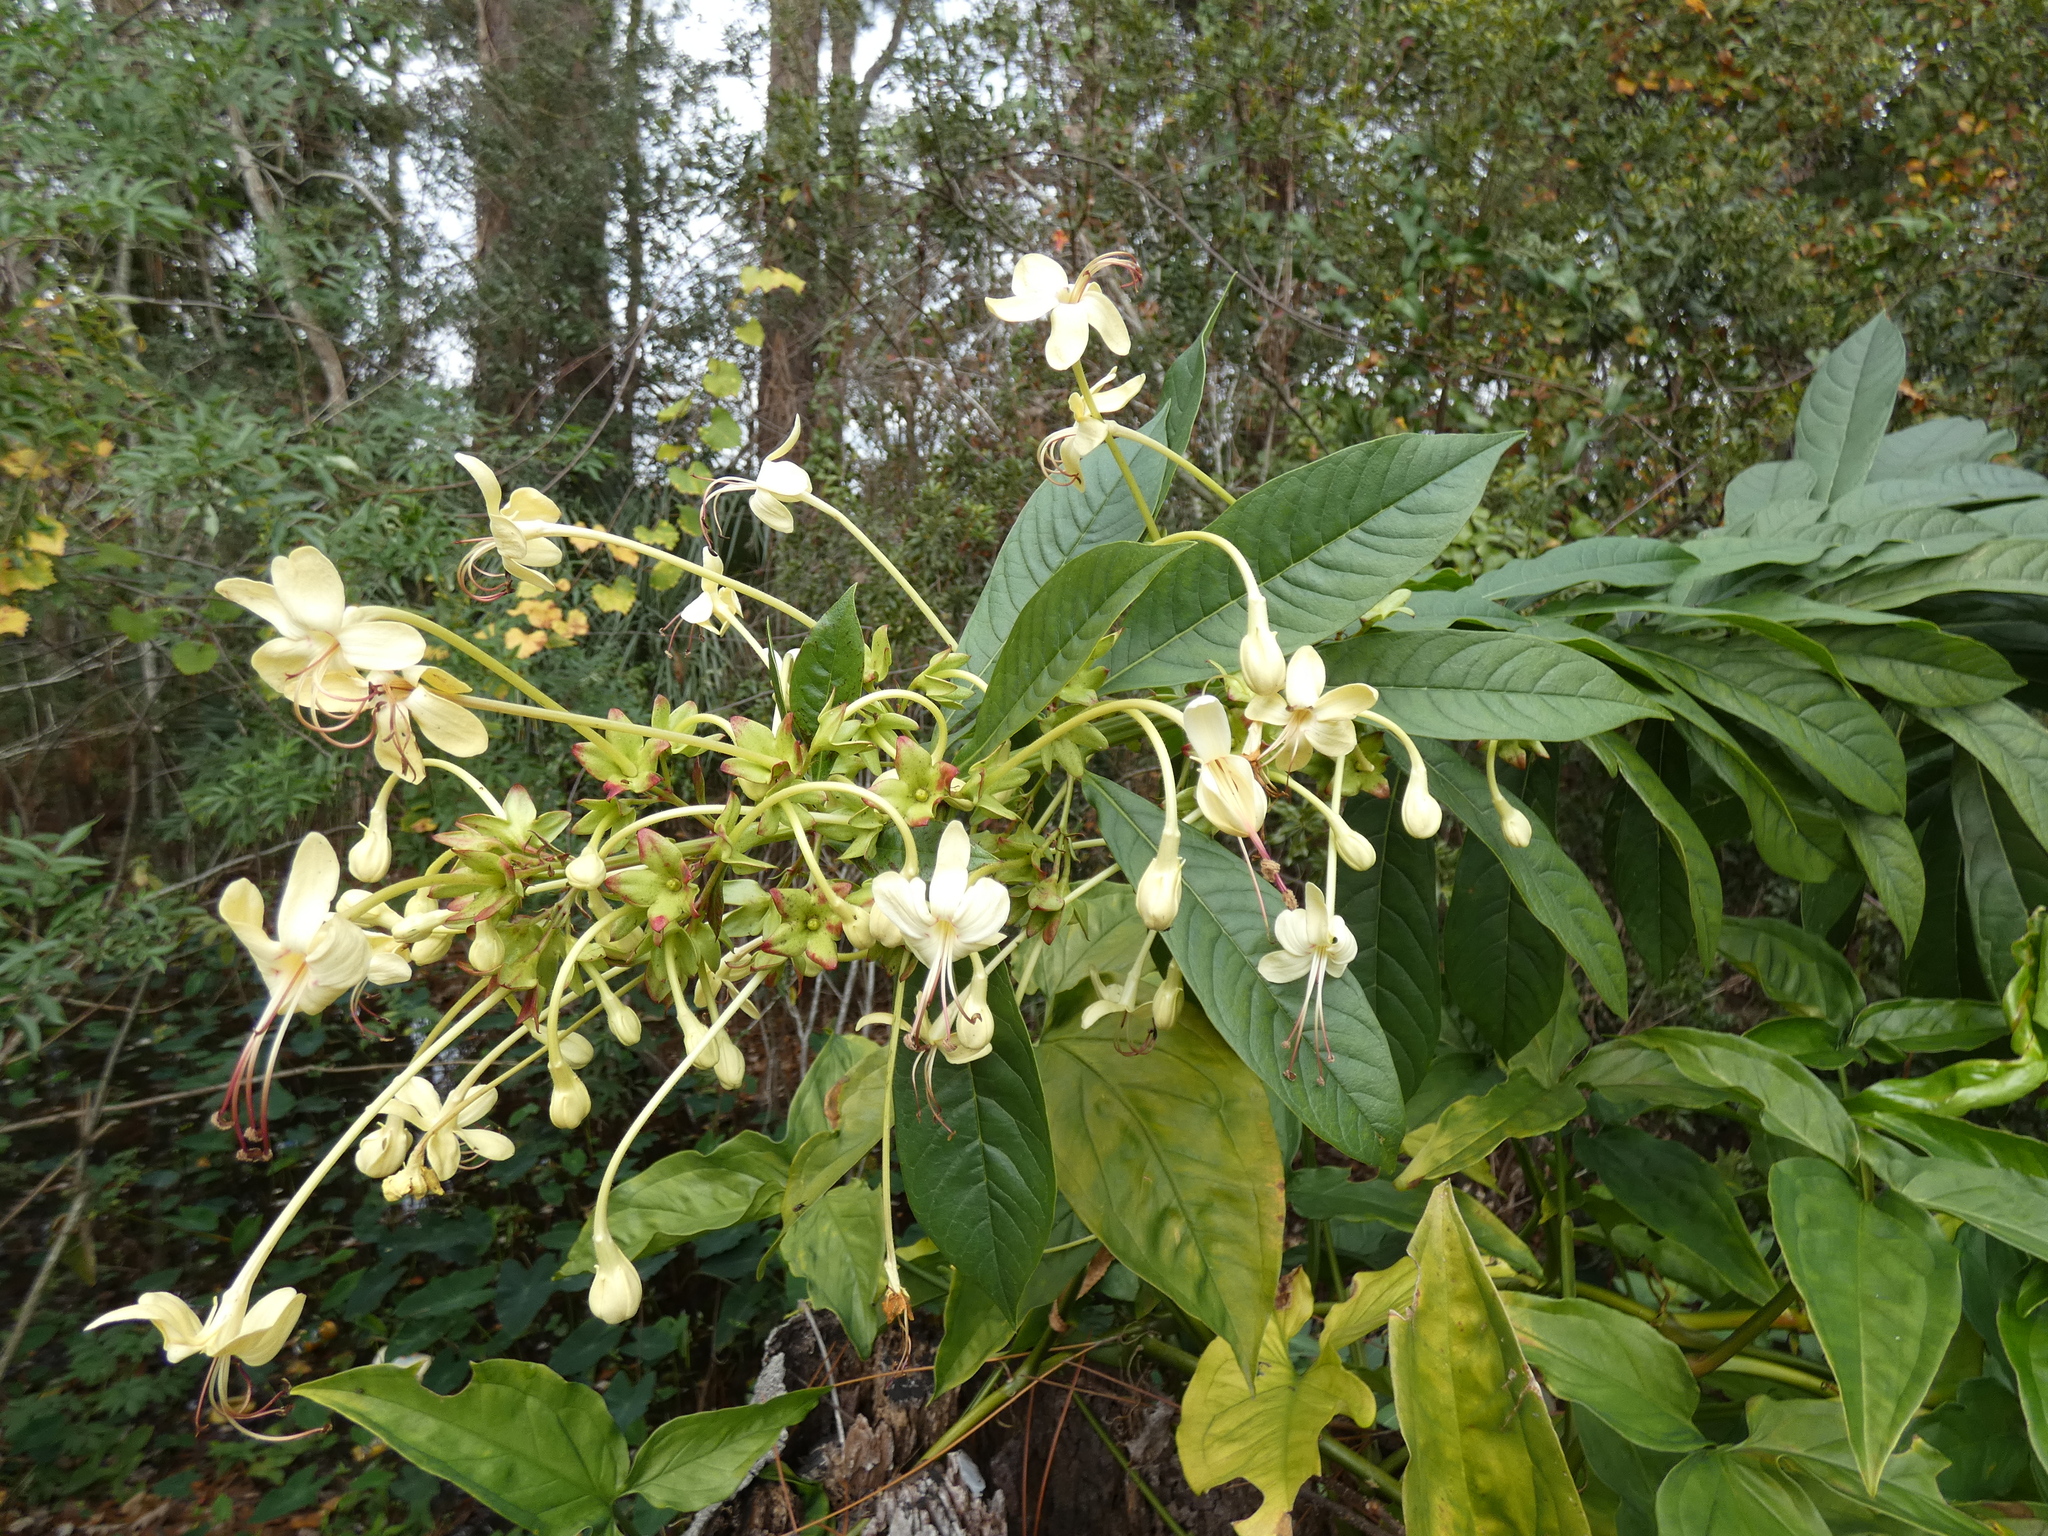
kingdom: Plantae
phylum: Tracheophyta
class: Magnoliopsida
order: Lamiales
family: Lamiaceae
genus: Clerodendrum
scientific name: Clerodendrum indicum
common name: Turk's turbin
